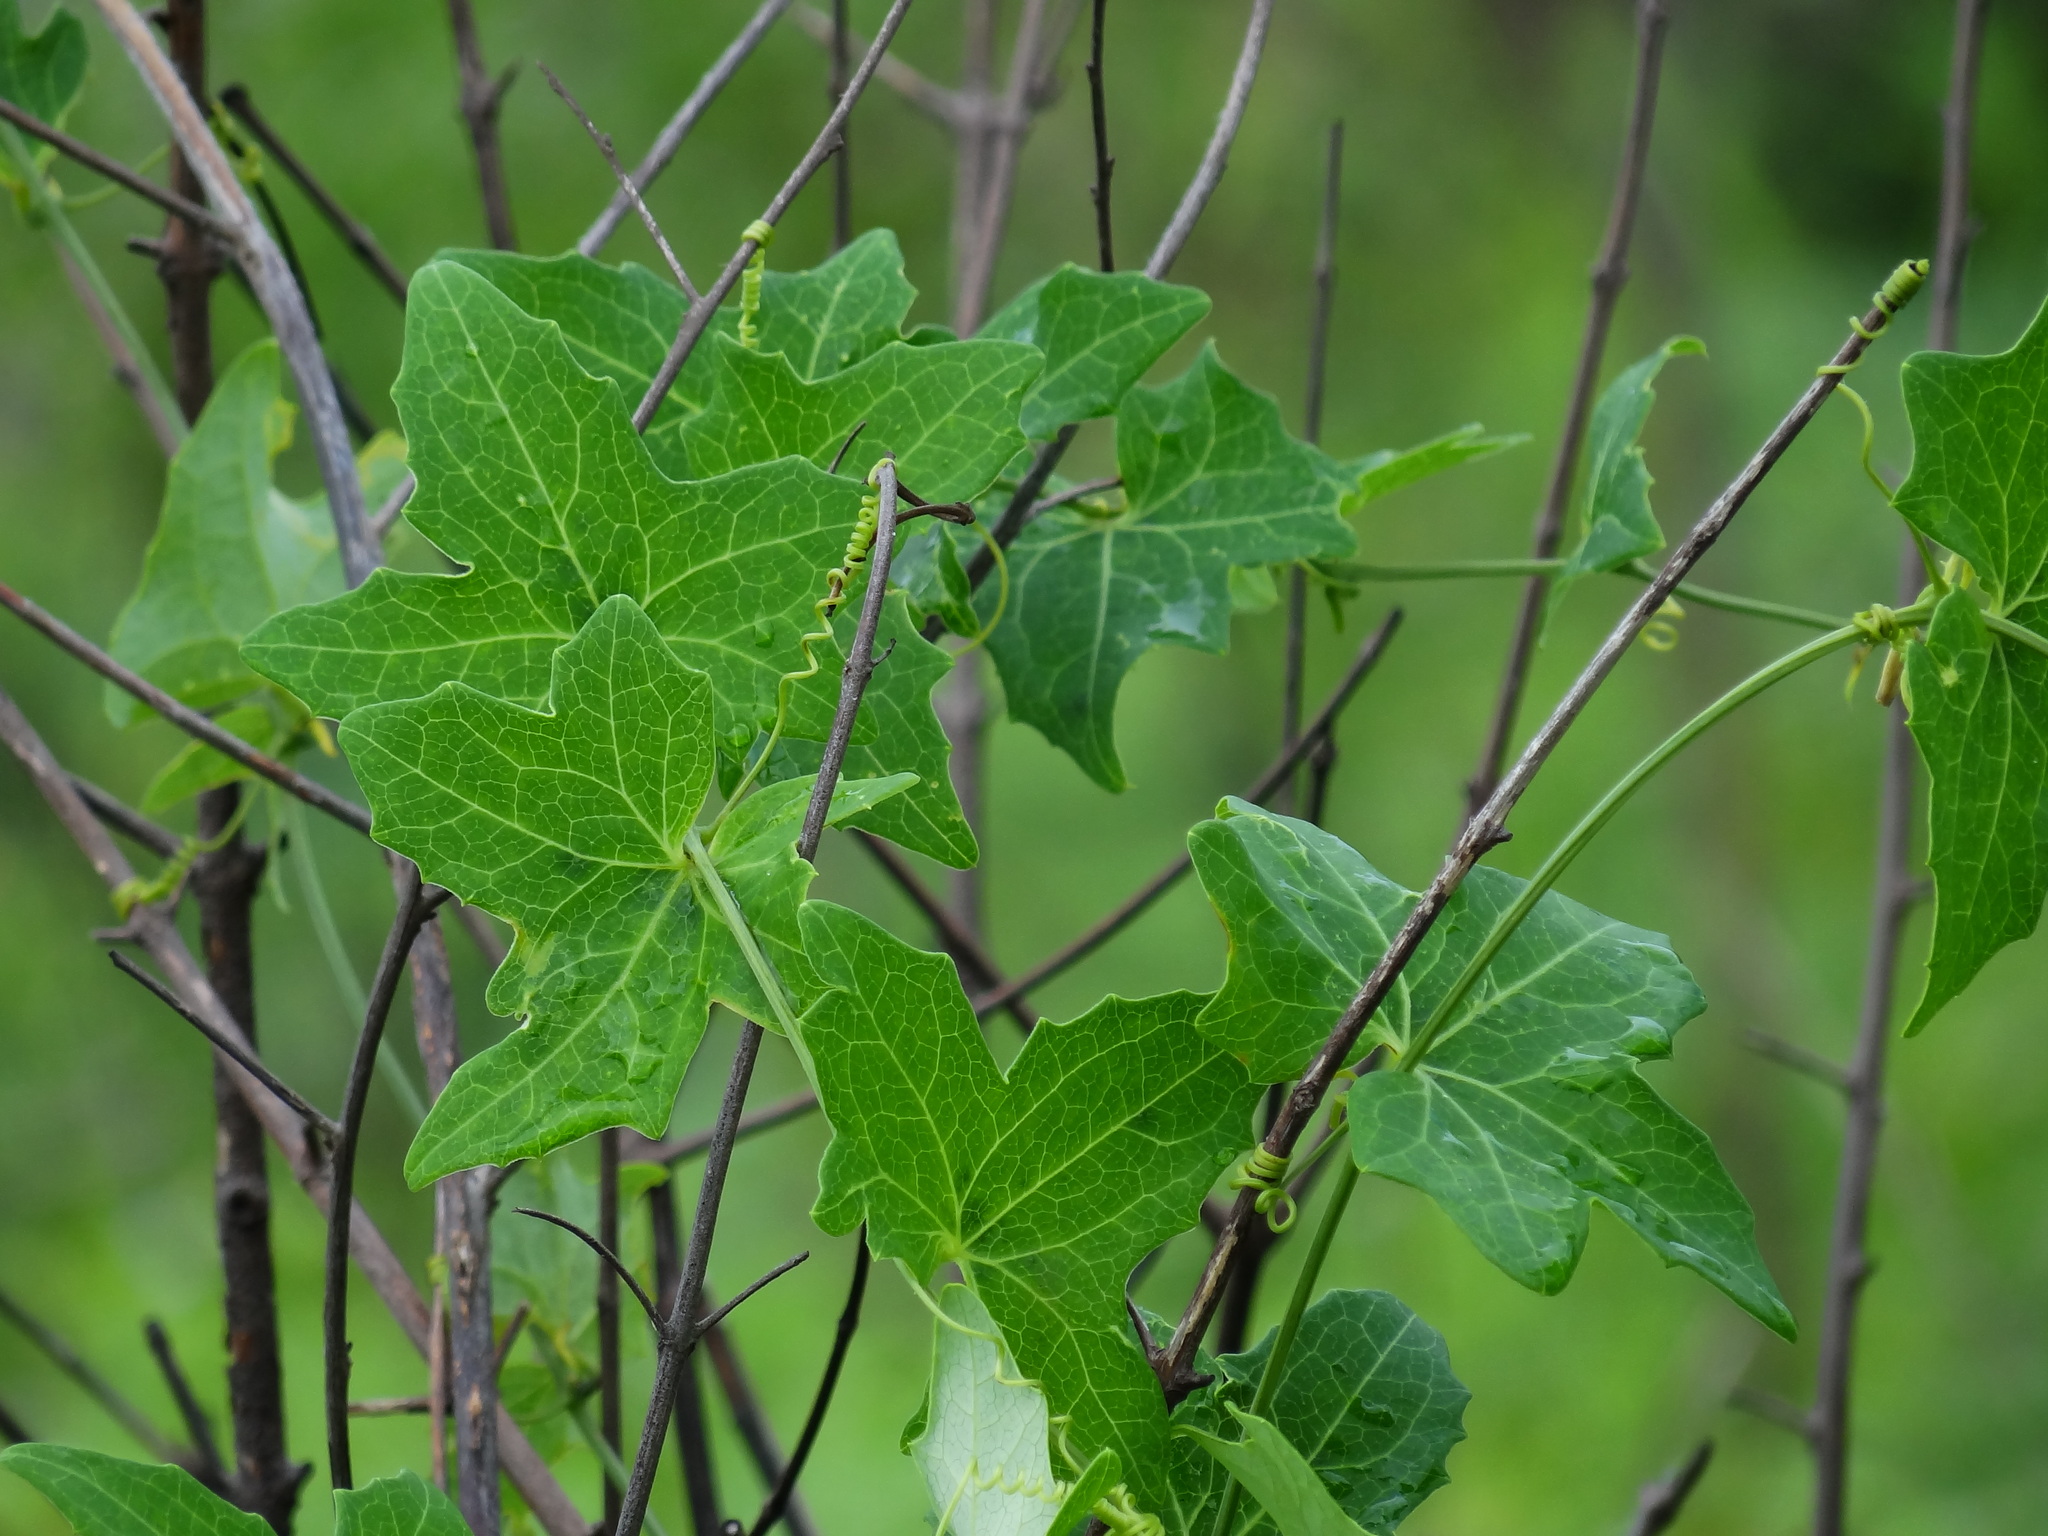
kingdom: Plantae
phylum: Tracheophyta
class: Magnoliopsida
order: Cucurbitales
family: Cucurbitaceae
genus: Solena
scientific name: Solena amplexicaulis
